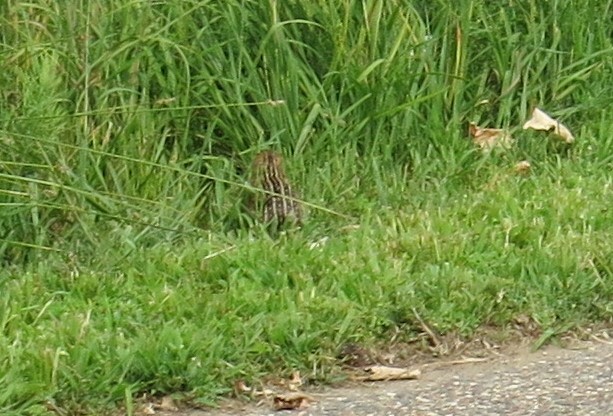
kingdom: Animalia
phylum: Chordata
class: Mammalia
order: Rodentia
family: Sciuridae
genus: Ictidomys
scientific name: Ictidomys tridecemlineatus
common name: Thirteen-lined ground squirrel
